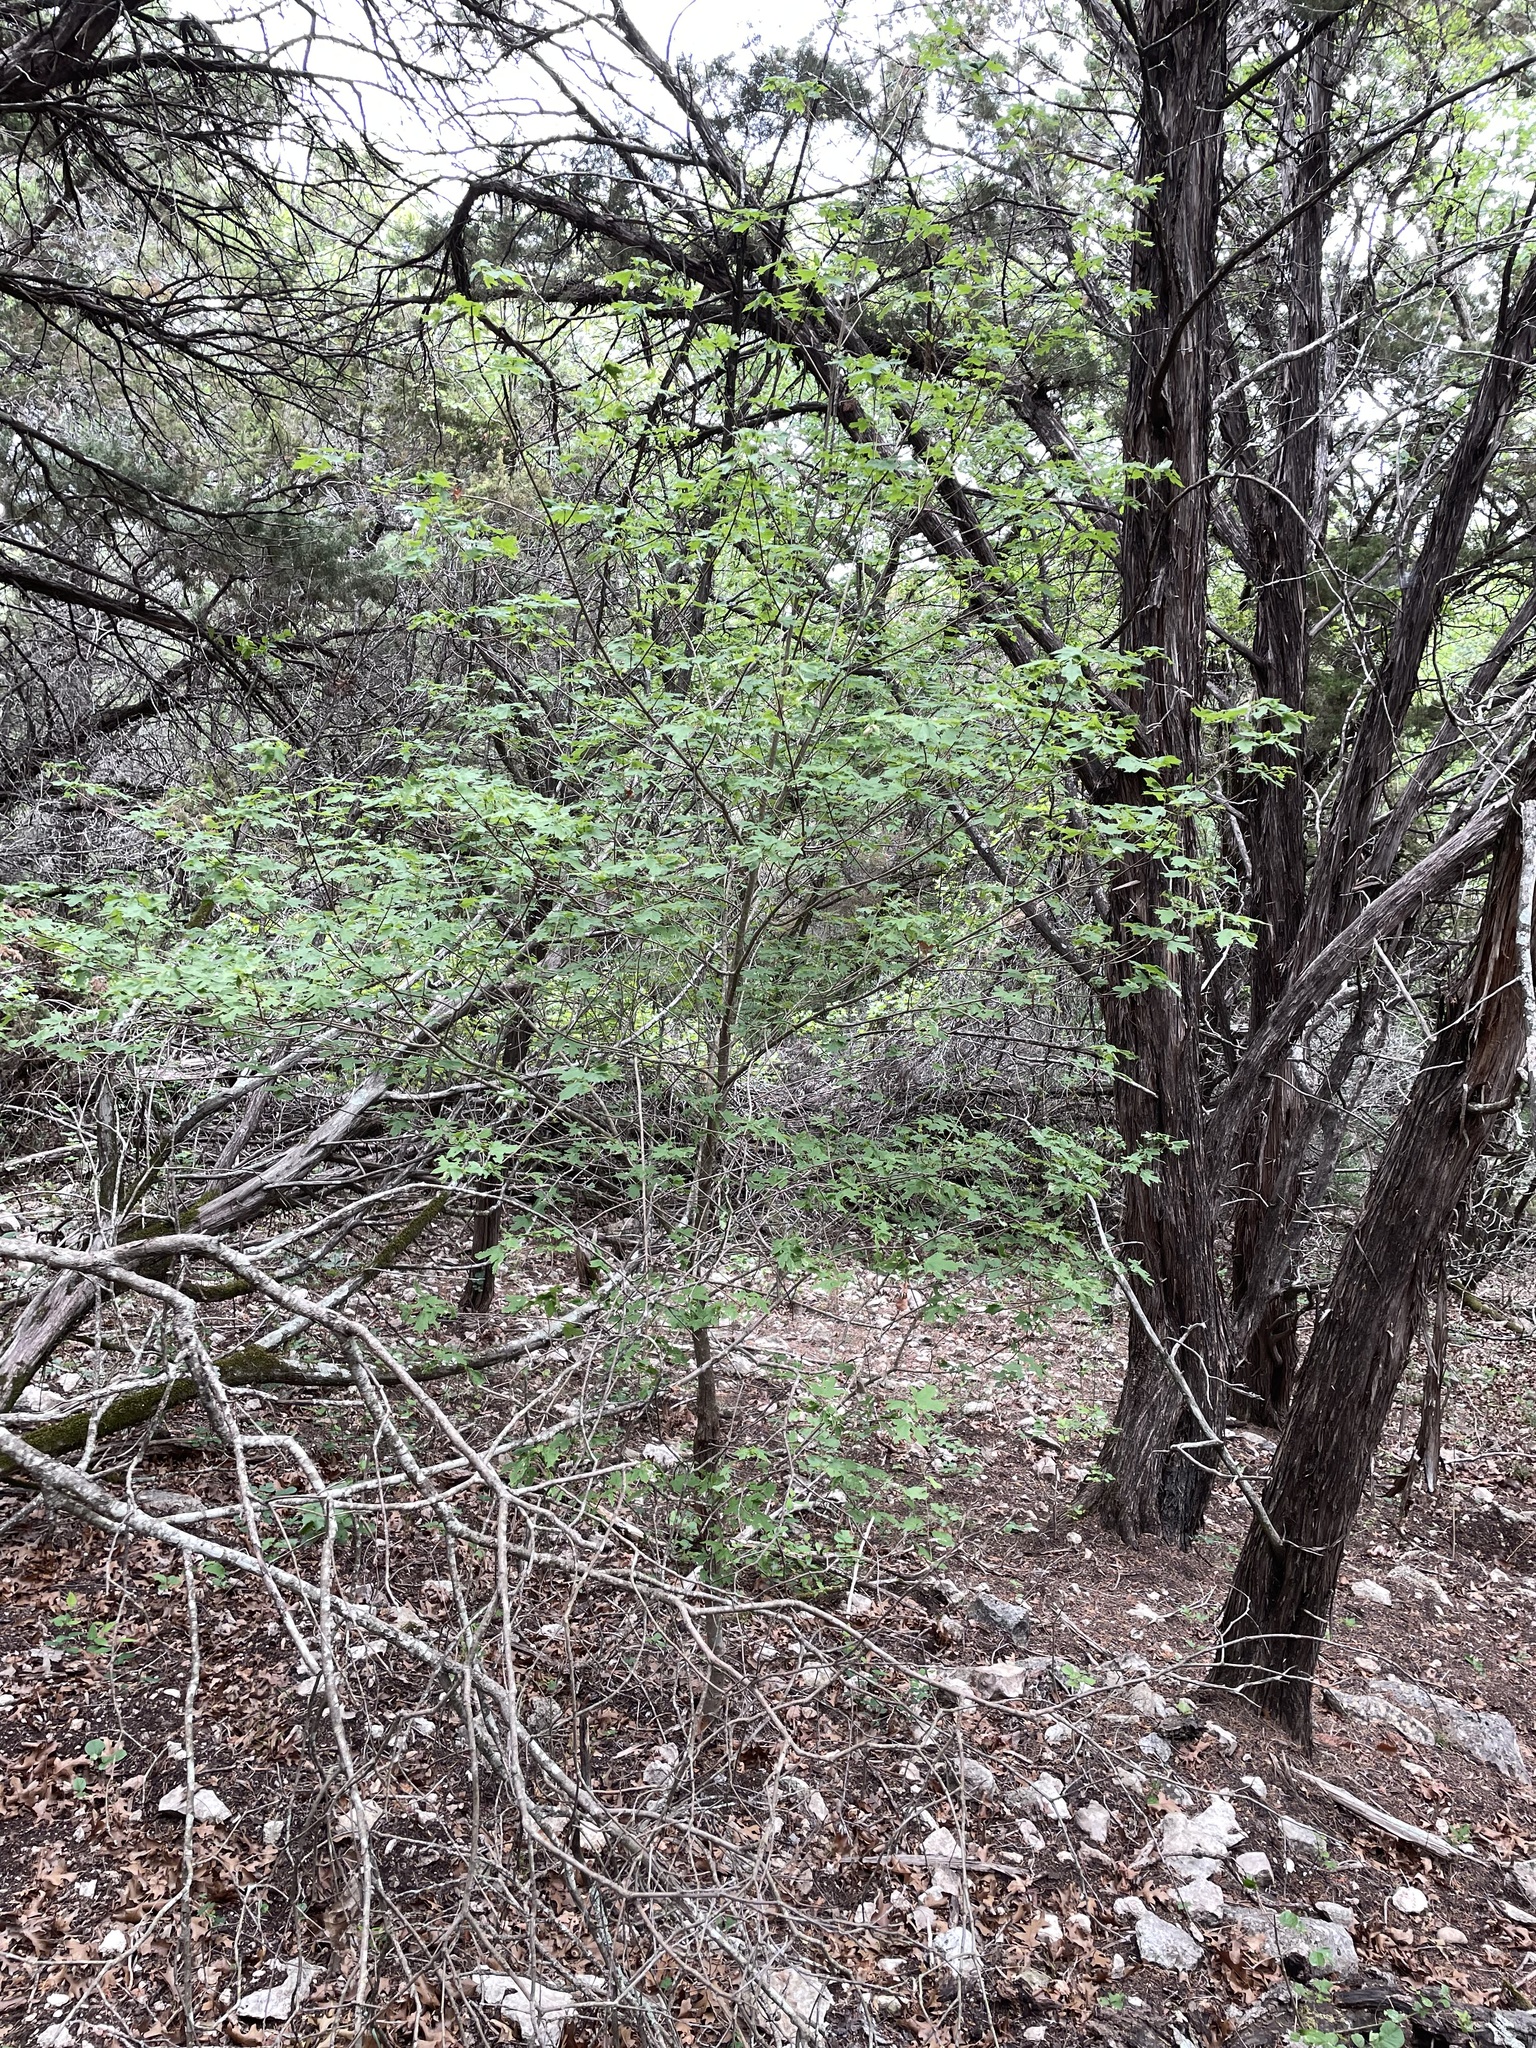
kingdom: Plantae
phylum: Tracheophyta
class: Magnoliopsida
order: Sapindales
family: Sapindaceae
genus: Acer
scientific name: Acer grandidentatum
